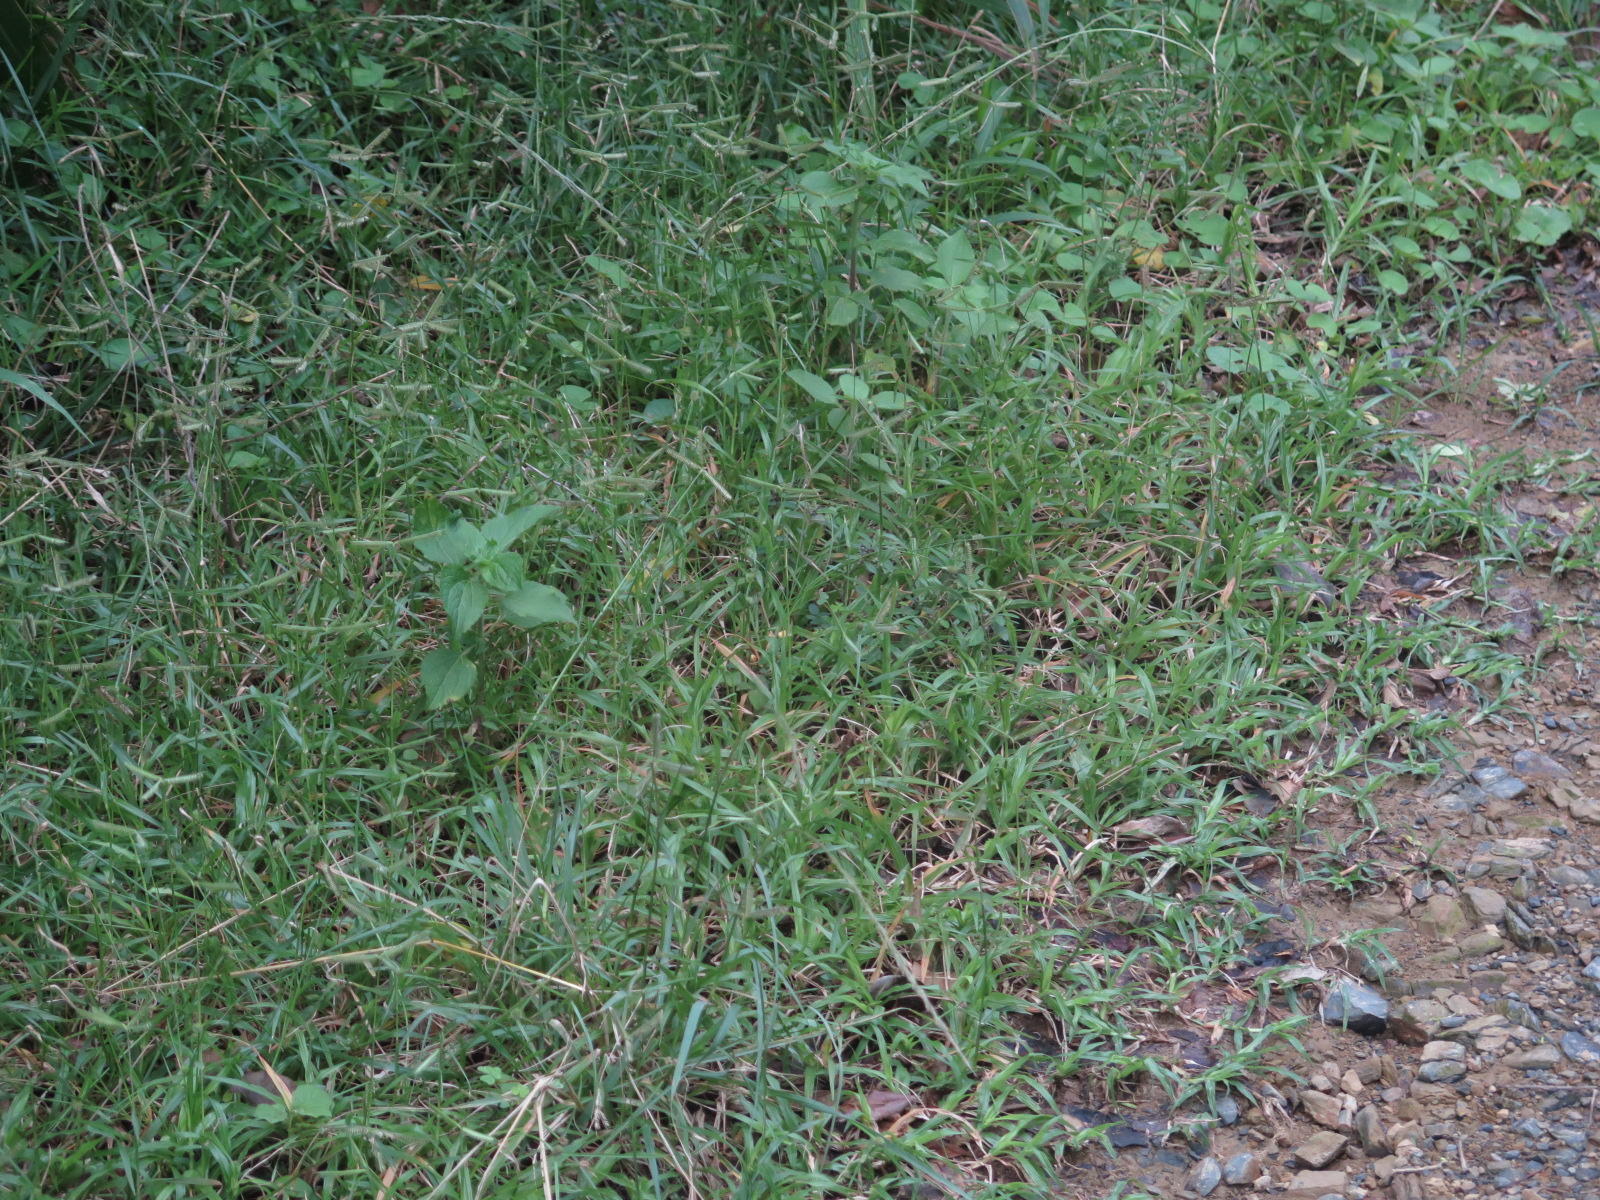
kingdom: Plantae
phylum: Tracheophyta
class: Liliopsida
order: Poales
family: Poaceae
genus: Dactyloctenium
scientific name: Dactyloctenium australe
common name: Durban grass
